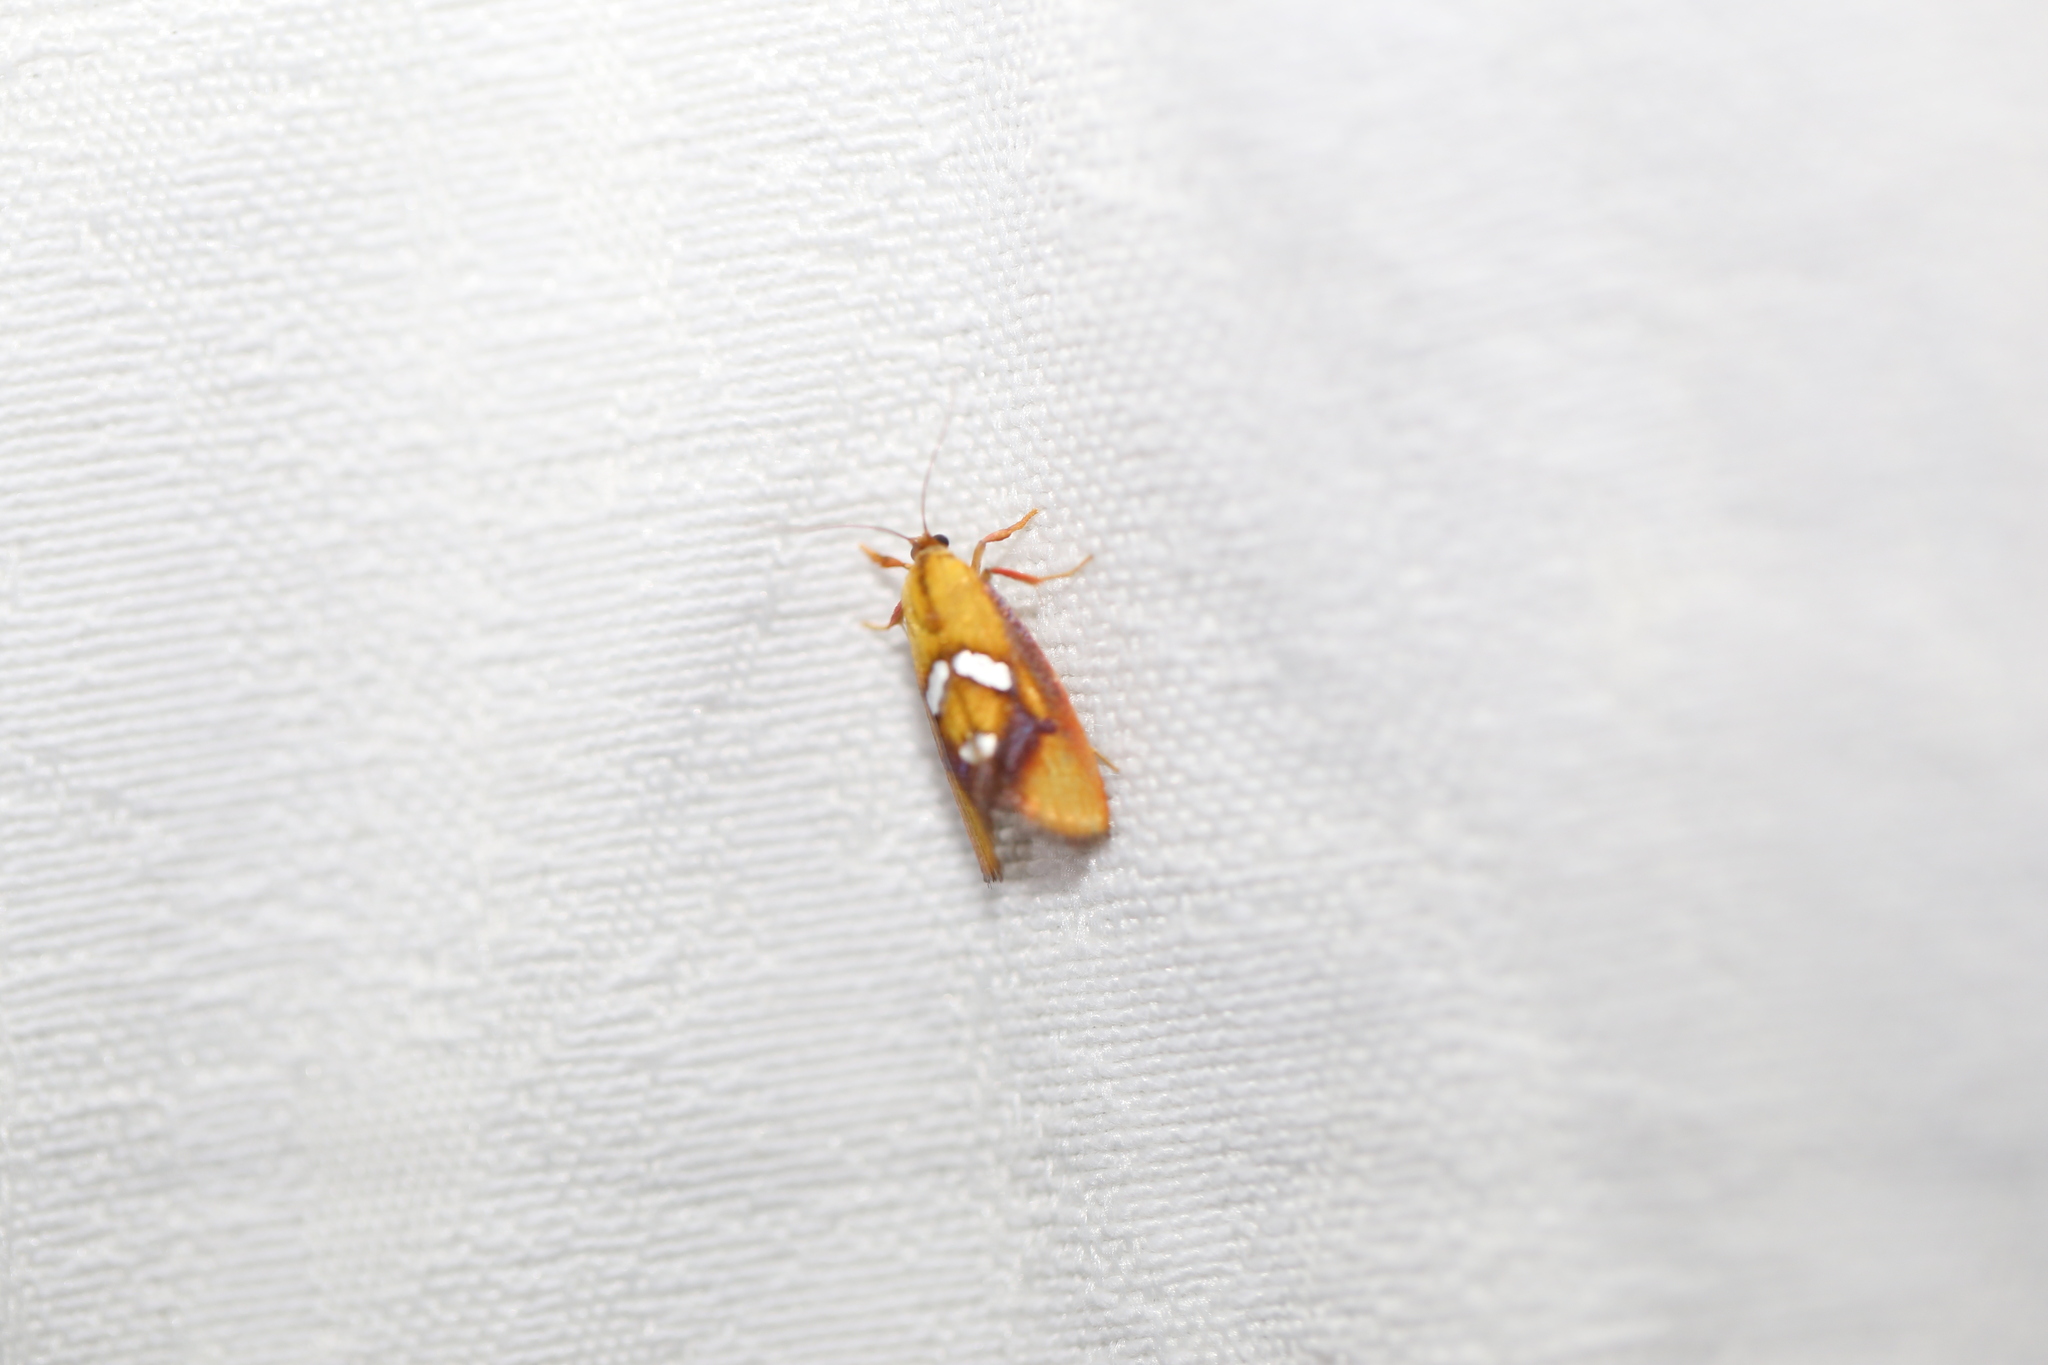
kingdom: Animalia
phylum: Arthropoda
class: Insecta
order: Lepidoptera
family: Oecophoridae
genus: Aristeis
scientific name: Aristeis hepialella
